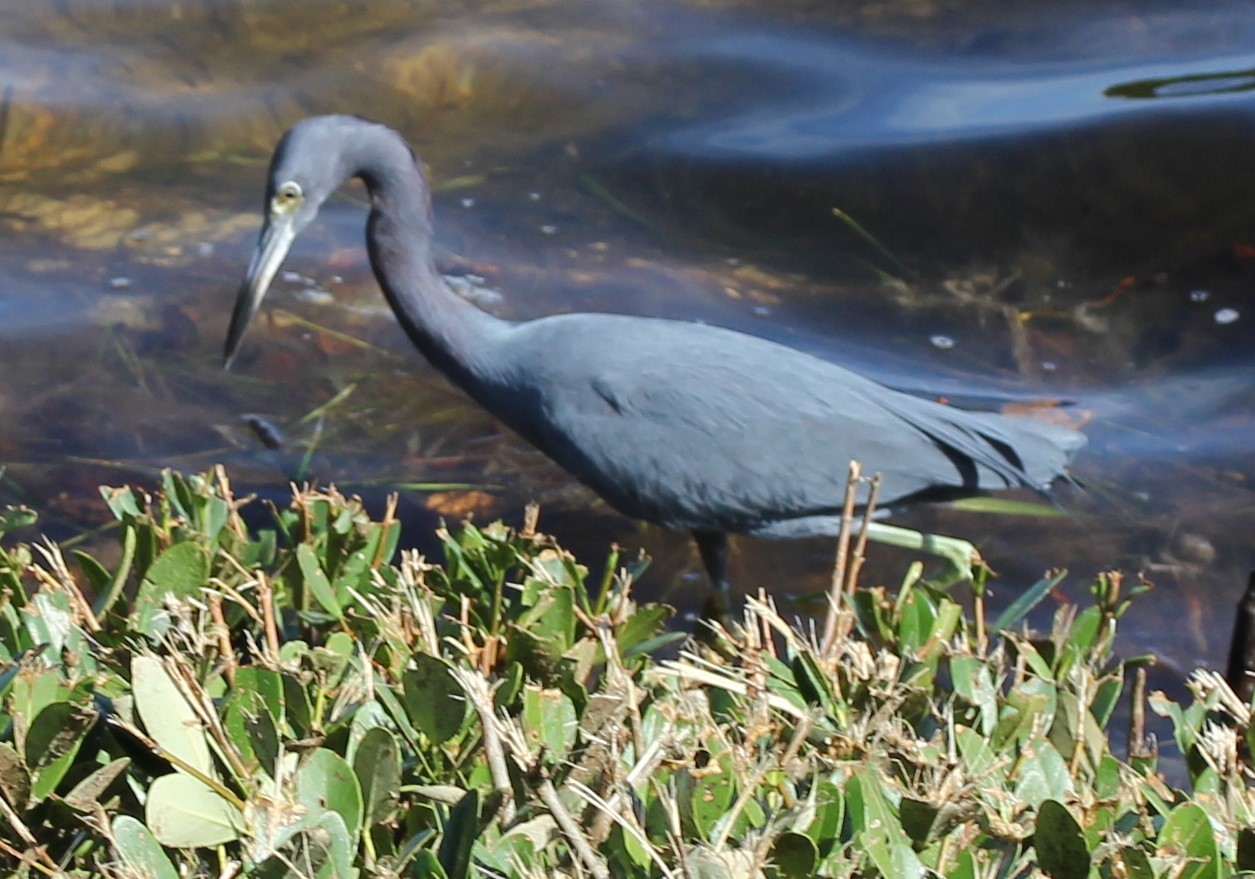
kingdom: Animalia
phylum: Chordata
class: Aves
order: Pelecaniformes
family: Ardeidae
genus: Egretta
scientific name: Egretta caerulea
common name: Little blue heron
